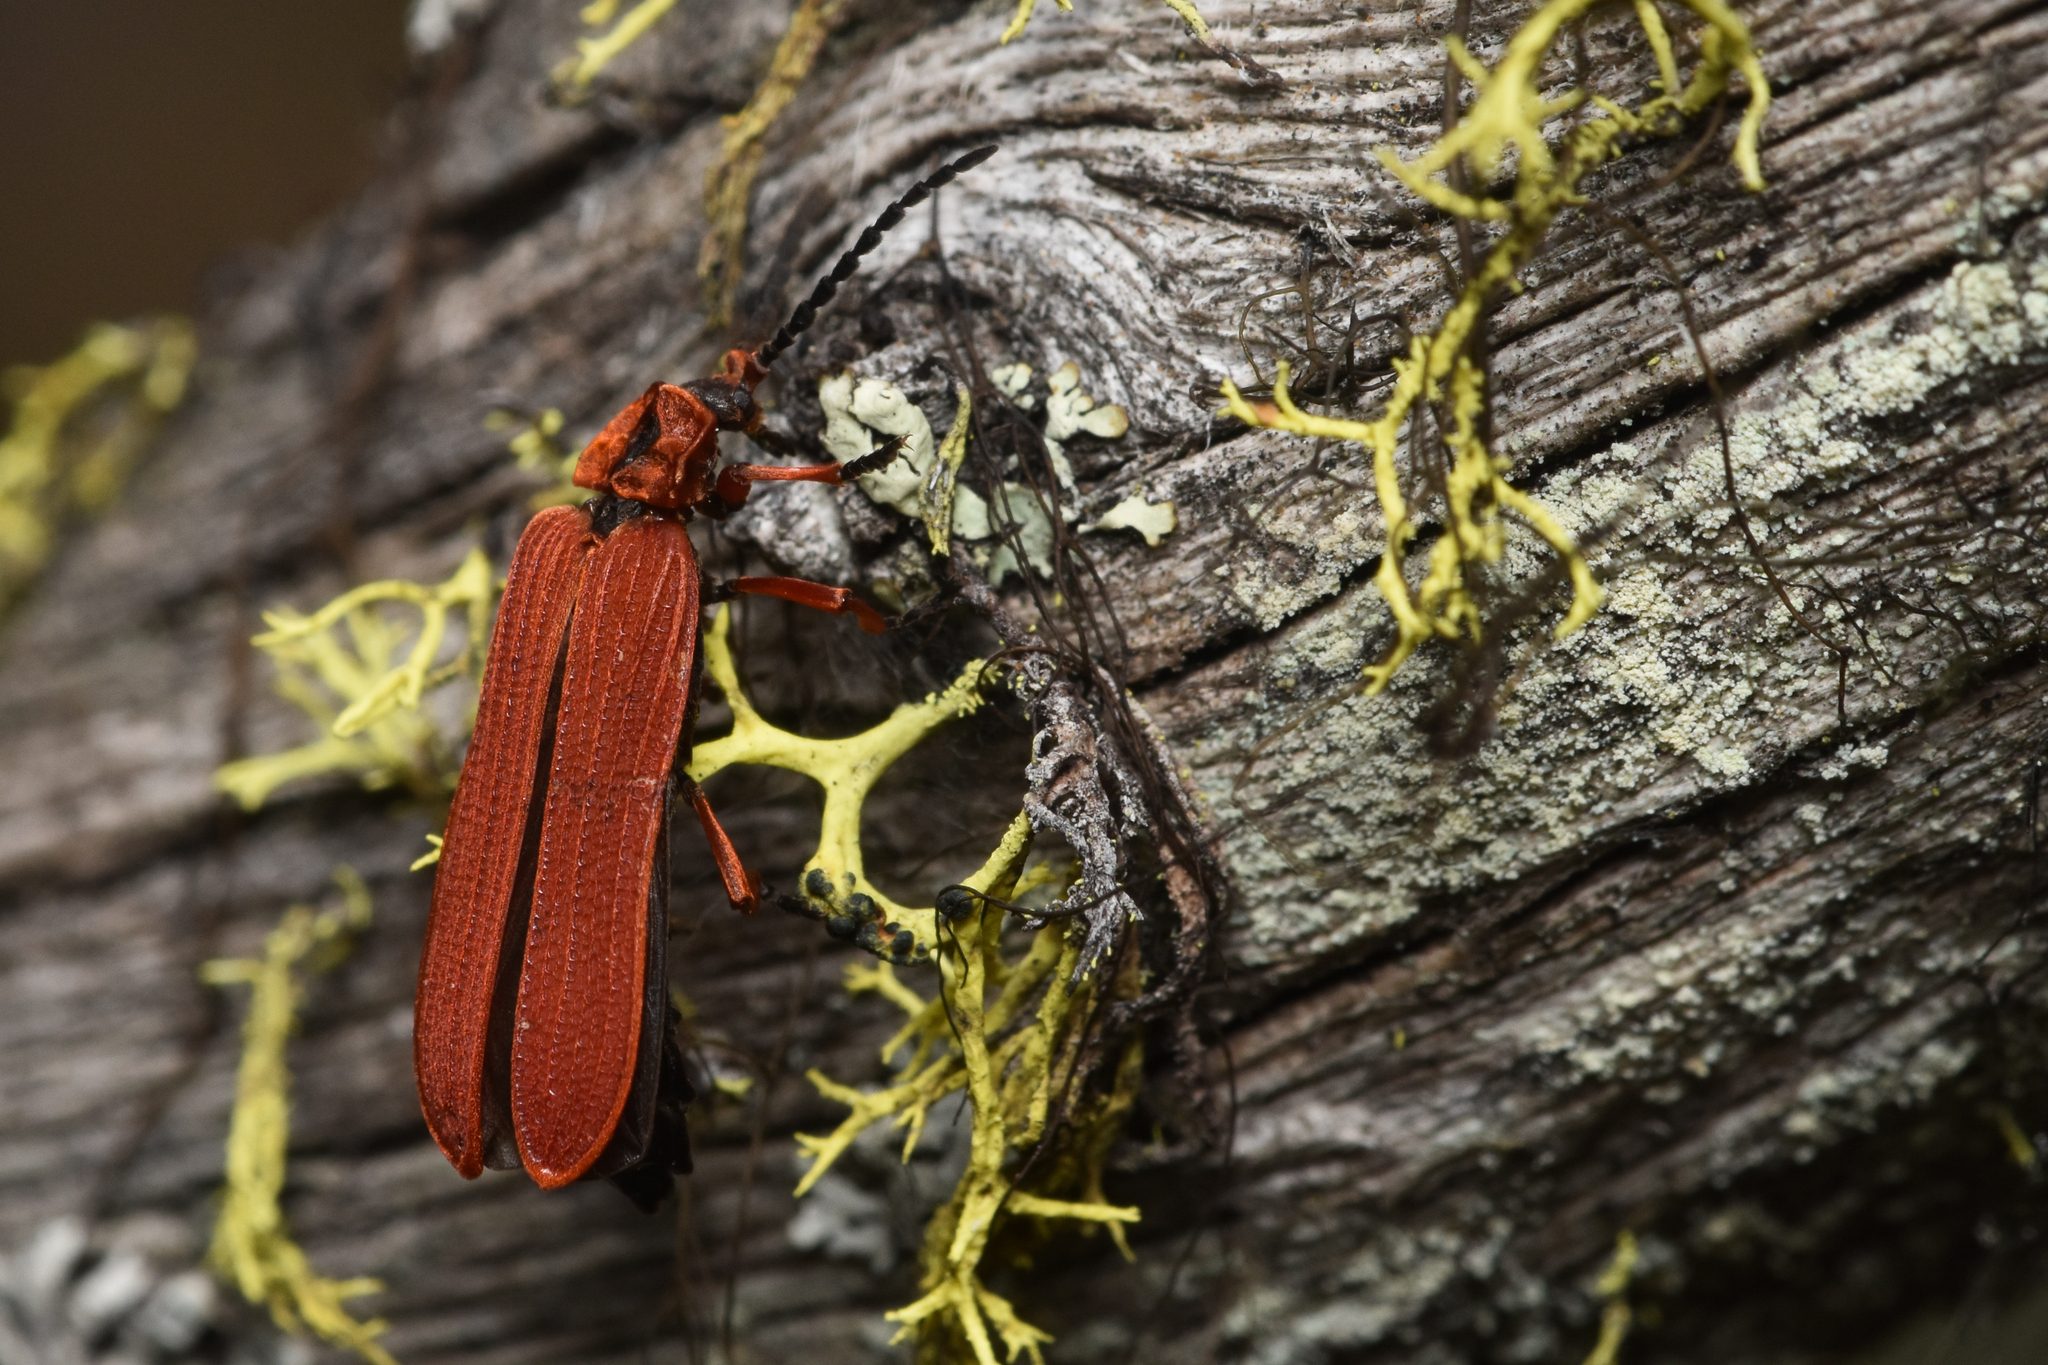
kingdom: Animalia
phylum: Arthropoda
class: Insecta
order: Coleoptera
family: Lycidae
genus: Dictyoptera
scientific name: Dictyoptera simplicipes
